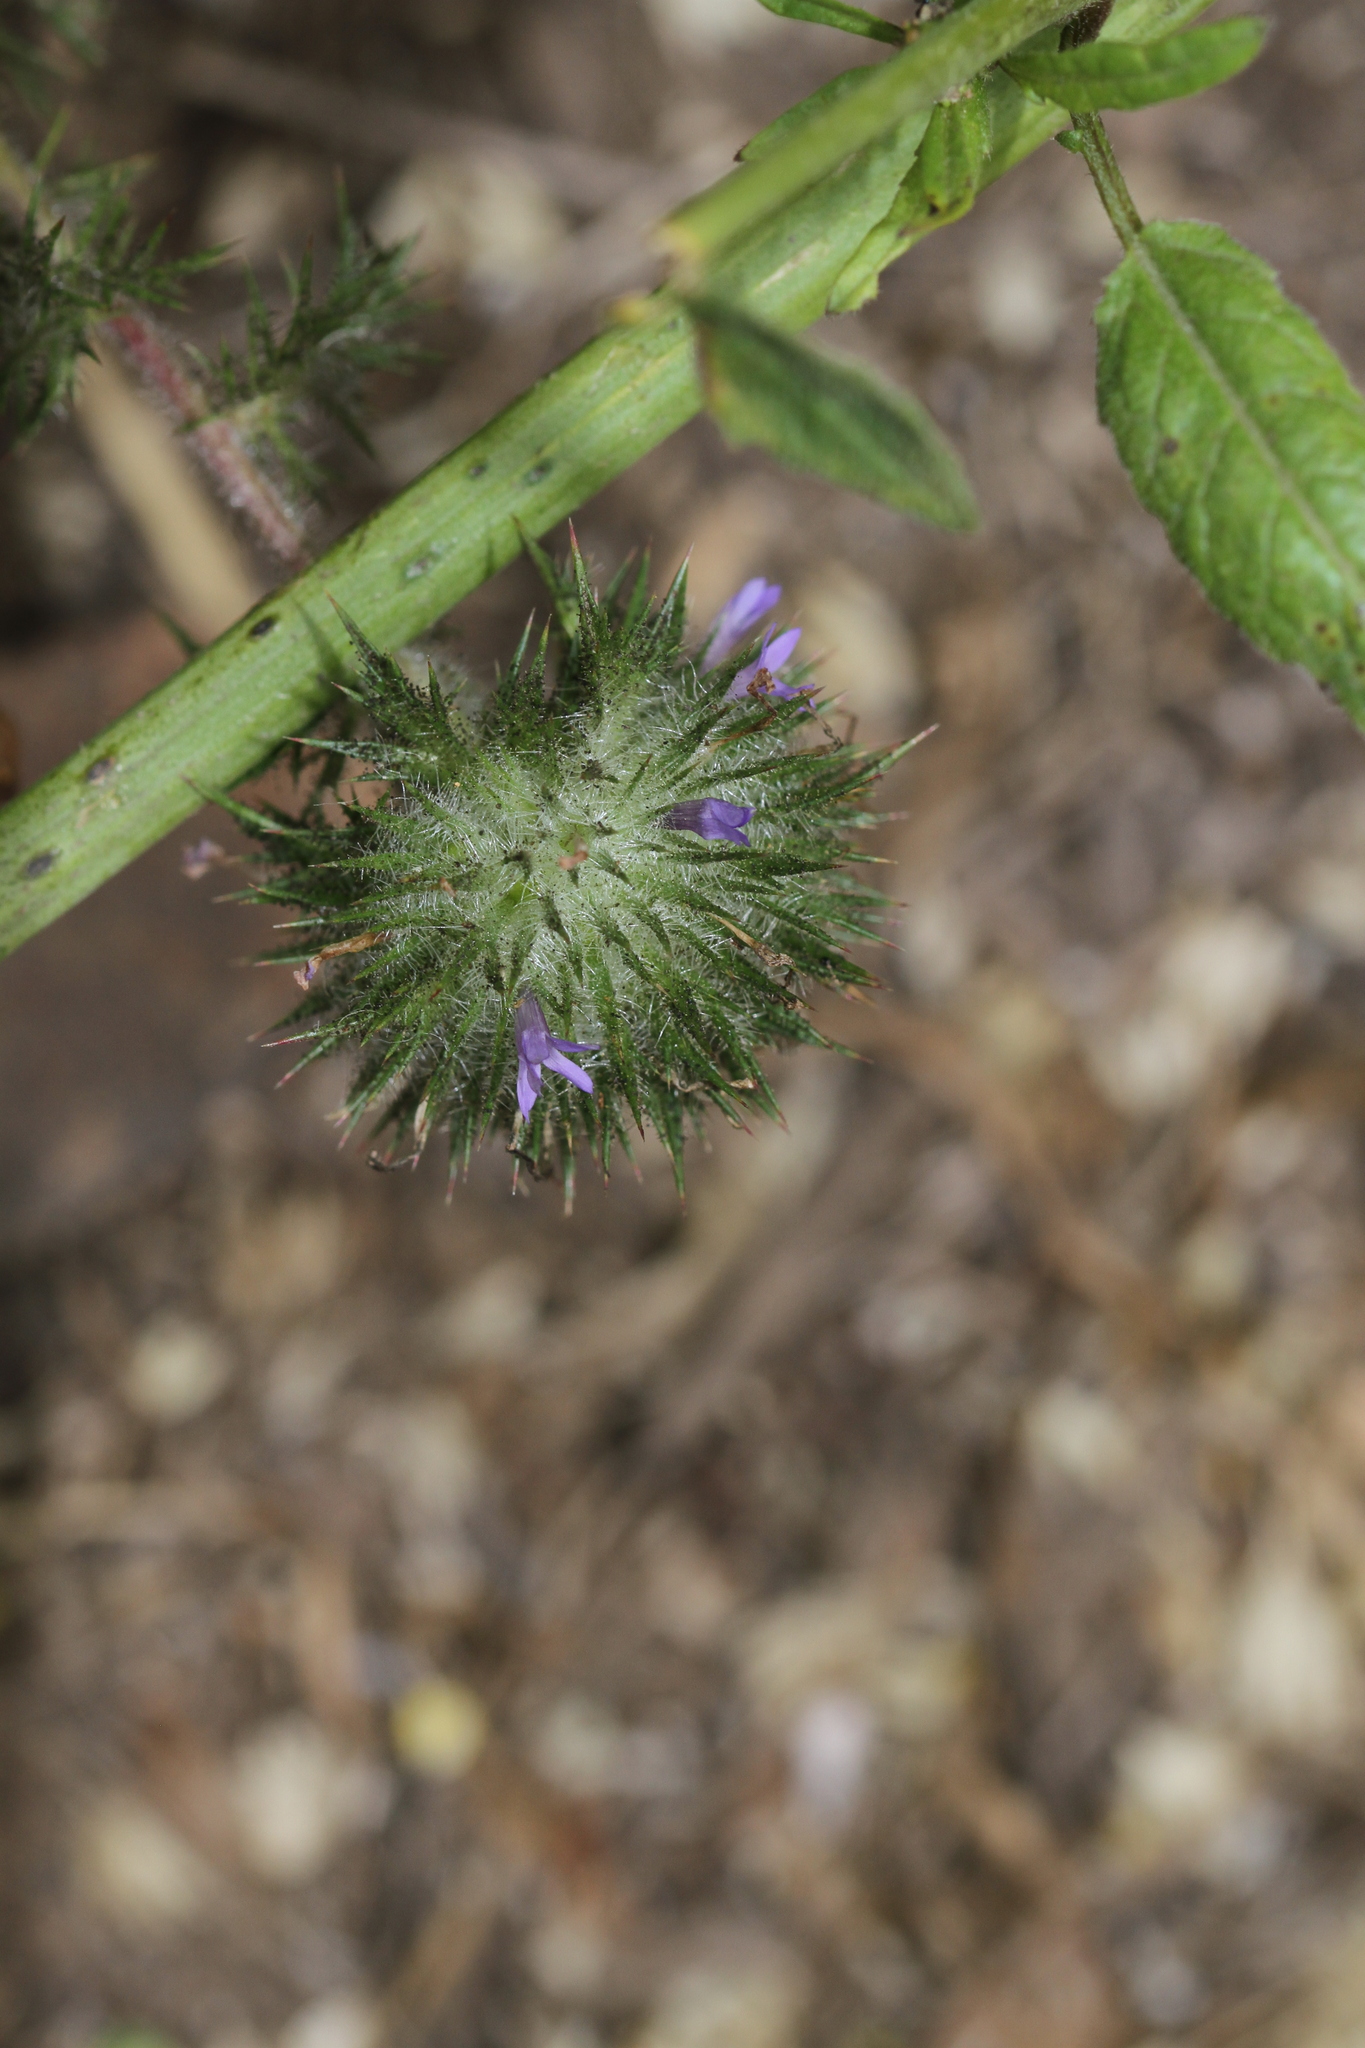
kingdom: Plantae
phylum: Tracheophyta
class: Magnoliopsida
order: Ericales
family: Polemoniaceae
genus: Navarretia
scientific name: Navarretia squarrosa
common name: Skunkweed
